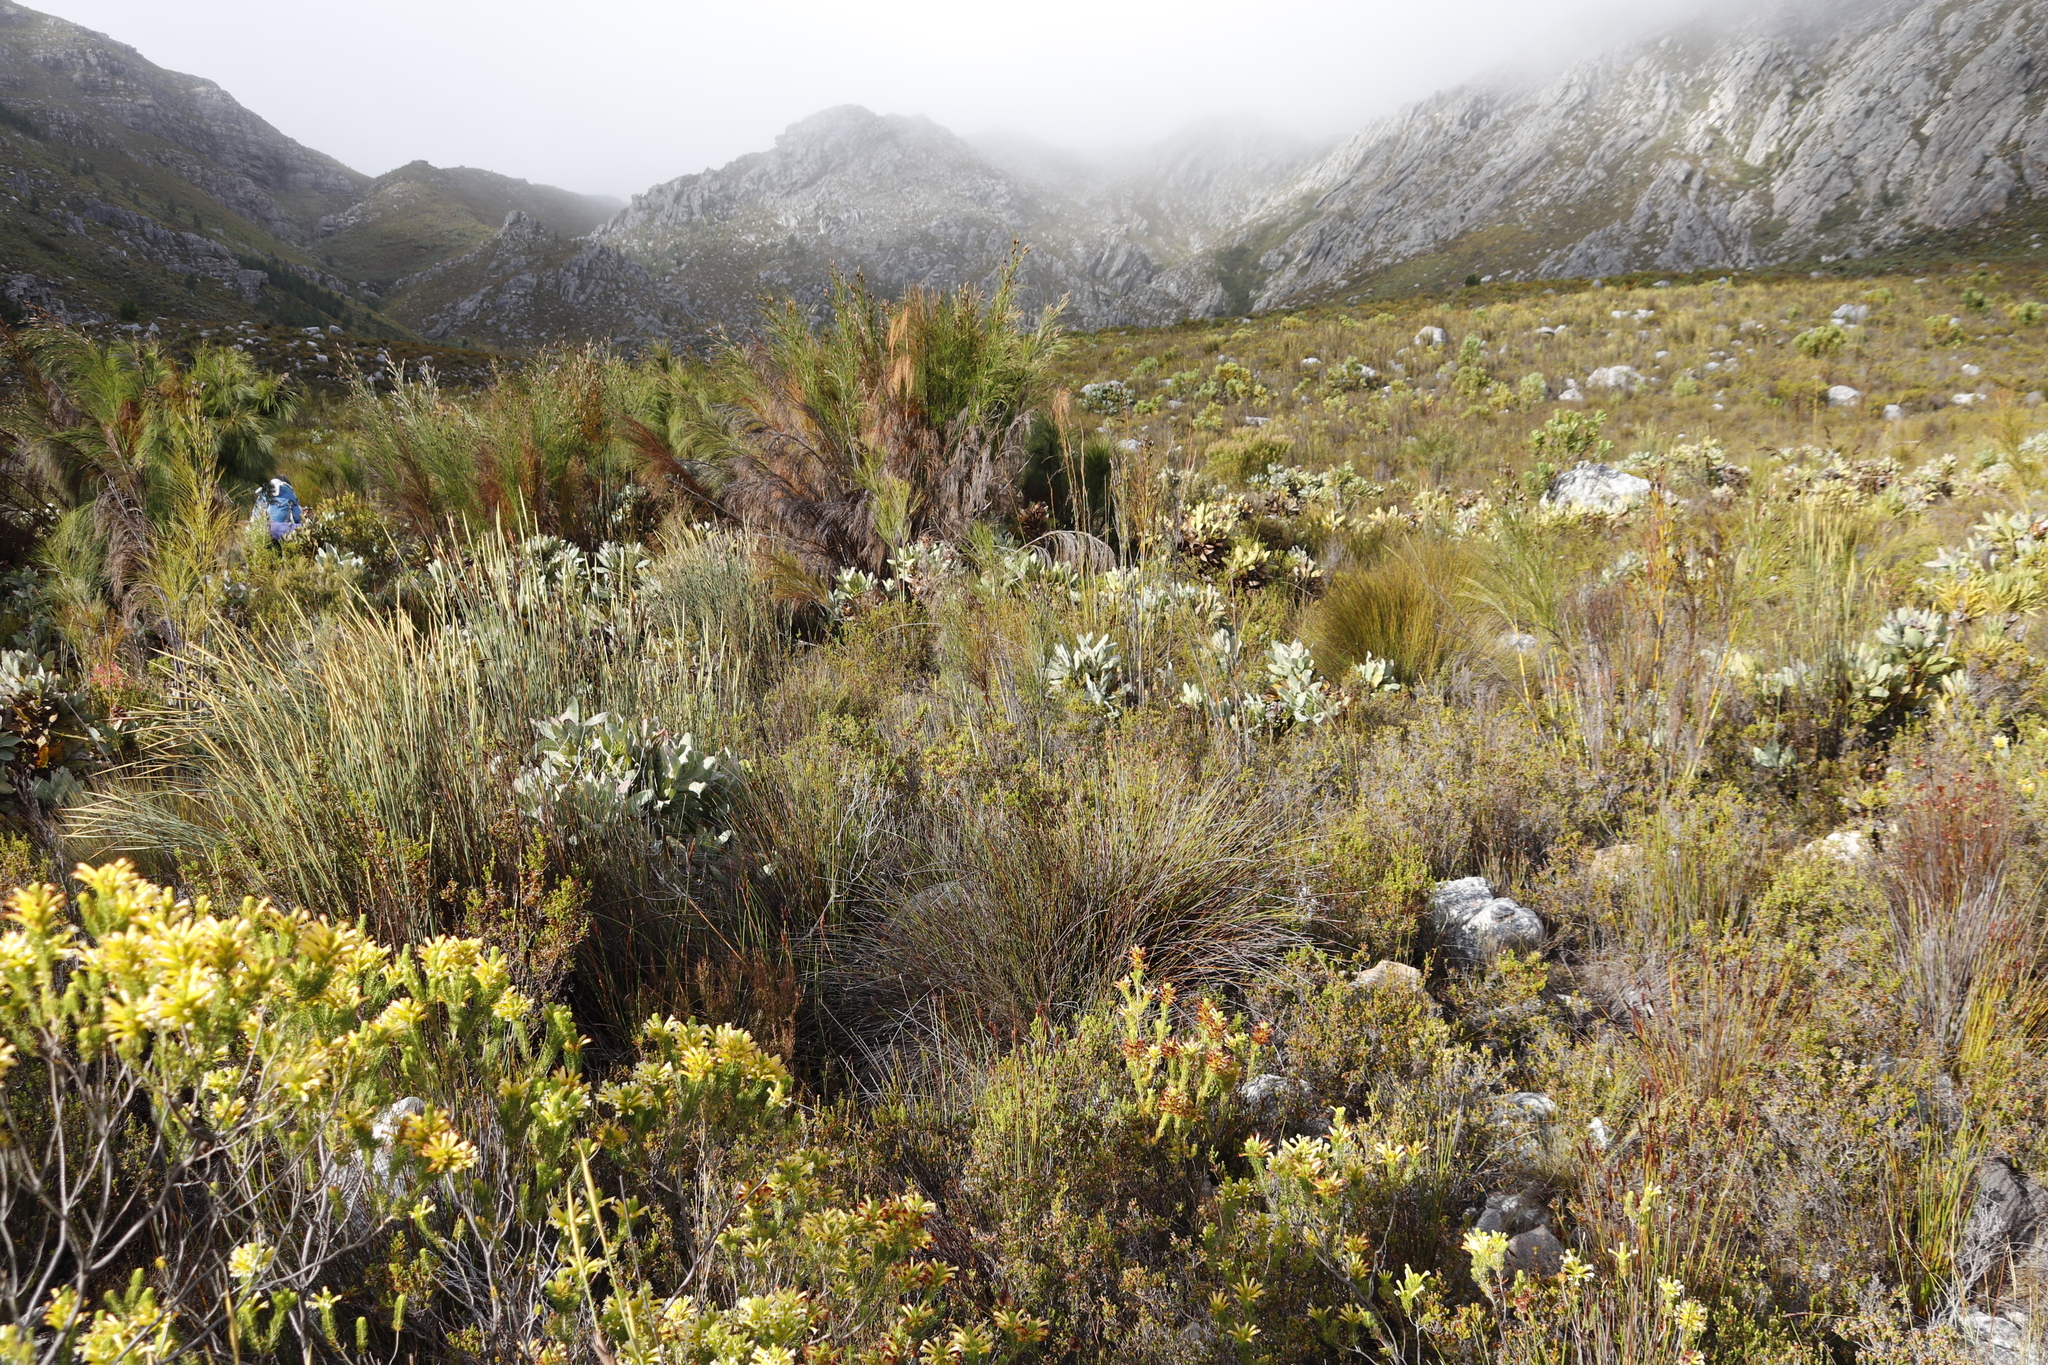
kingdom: Plantae
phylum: Tracheophyta
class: Magnoliopsida
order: Proteales
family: Proteaceae
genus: Protea
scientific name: Protea magnifica
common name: Bearded sugarbush
